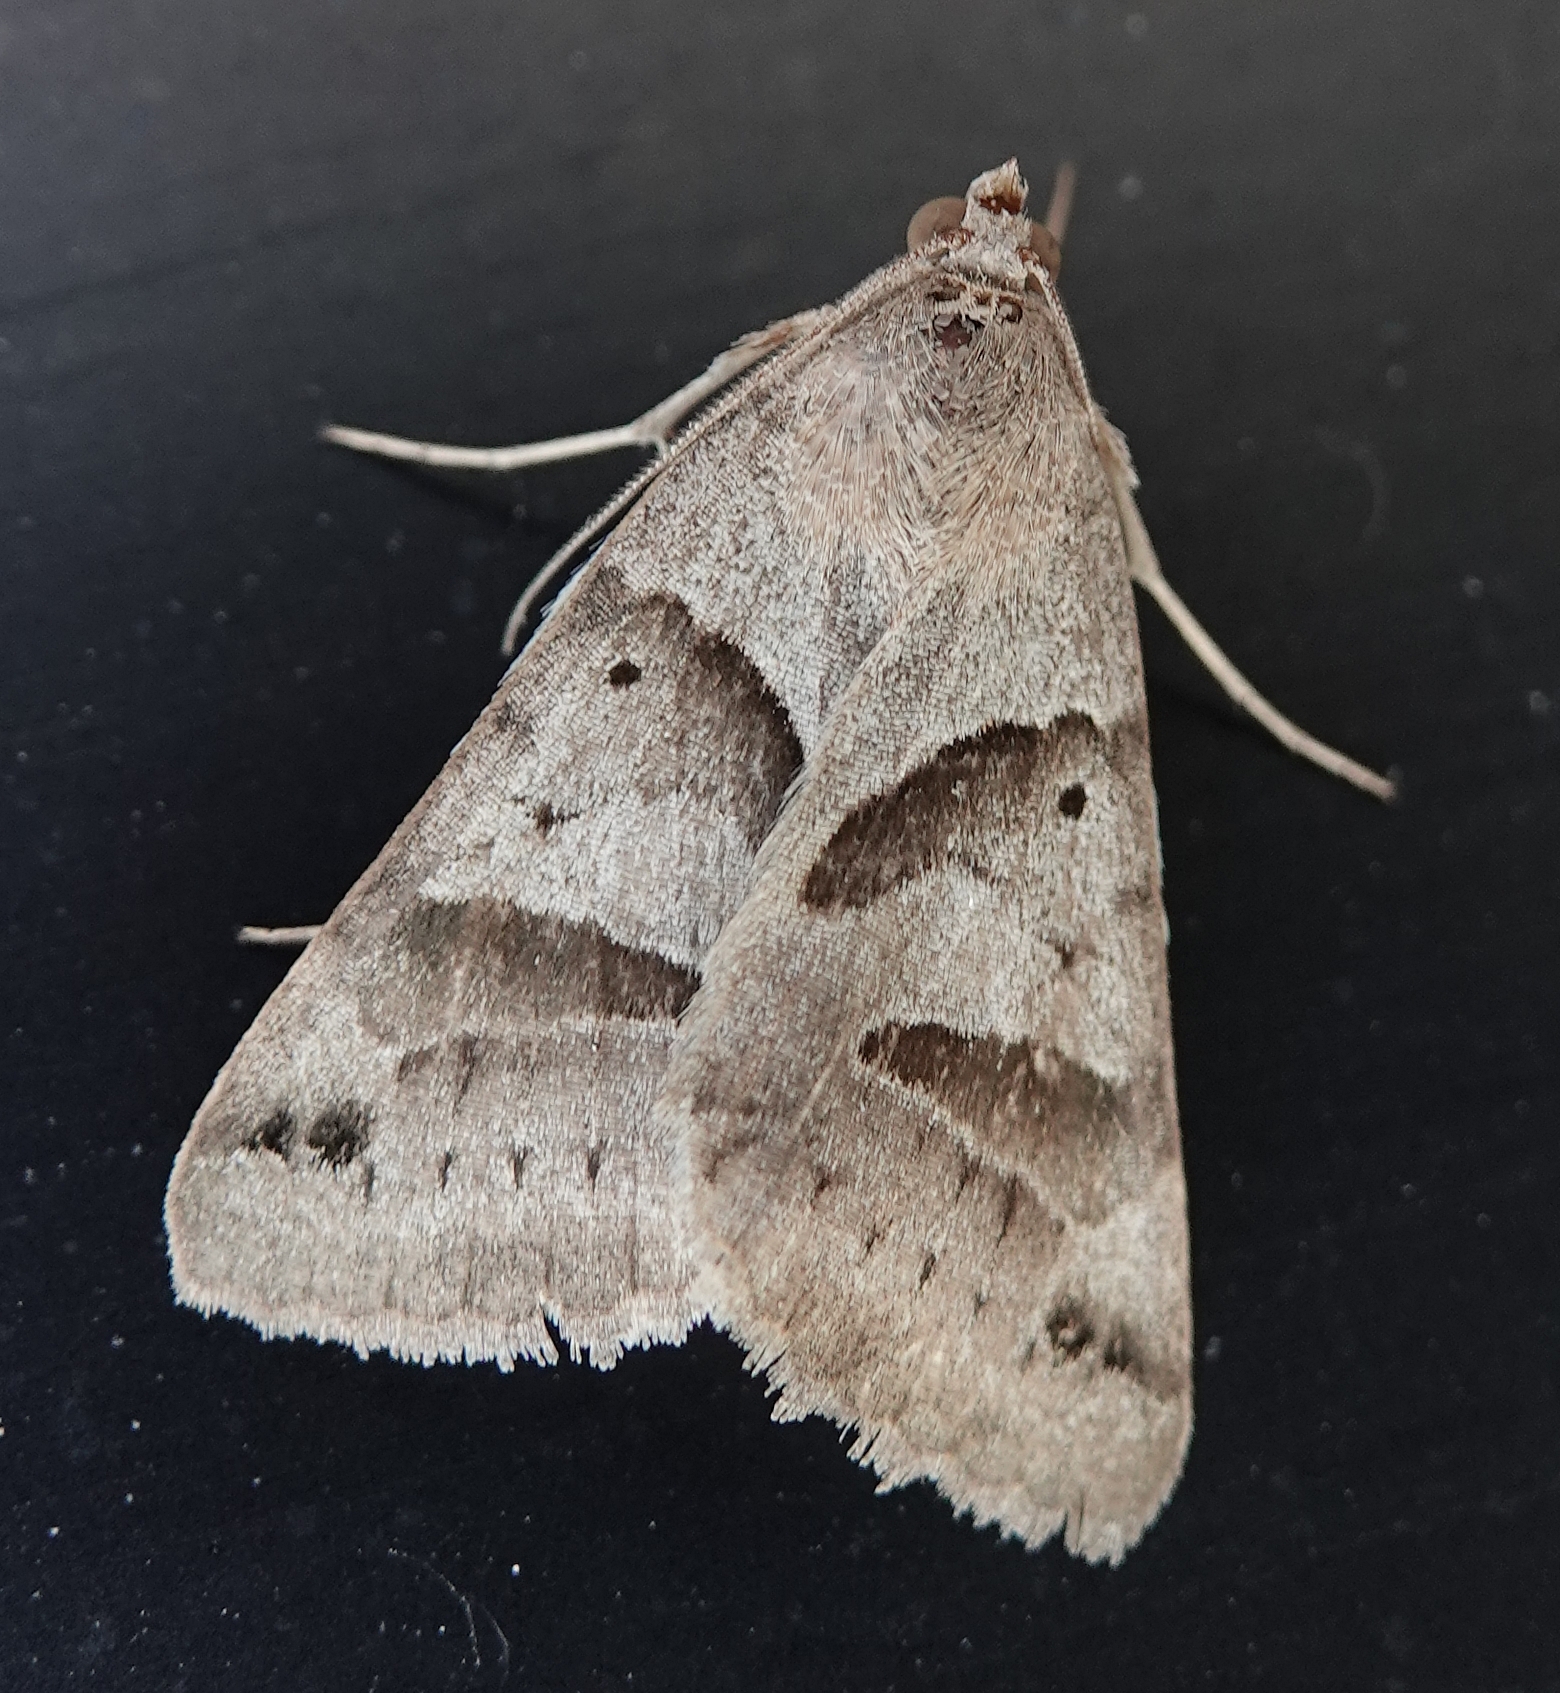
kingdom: Animalia
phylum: Arthropoda
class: Insecta
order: Lepidoptera
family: Erebidae
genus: Caenurgina
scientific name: Caenurgina erechtea
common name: Forage looper moth
